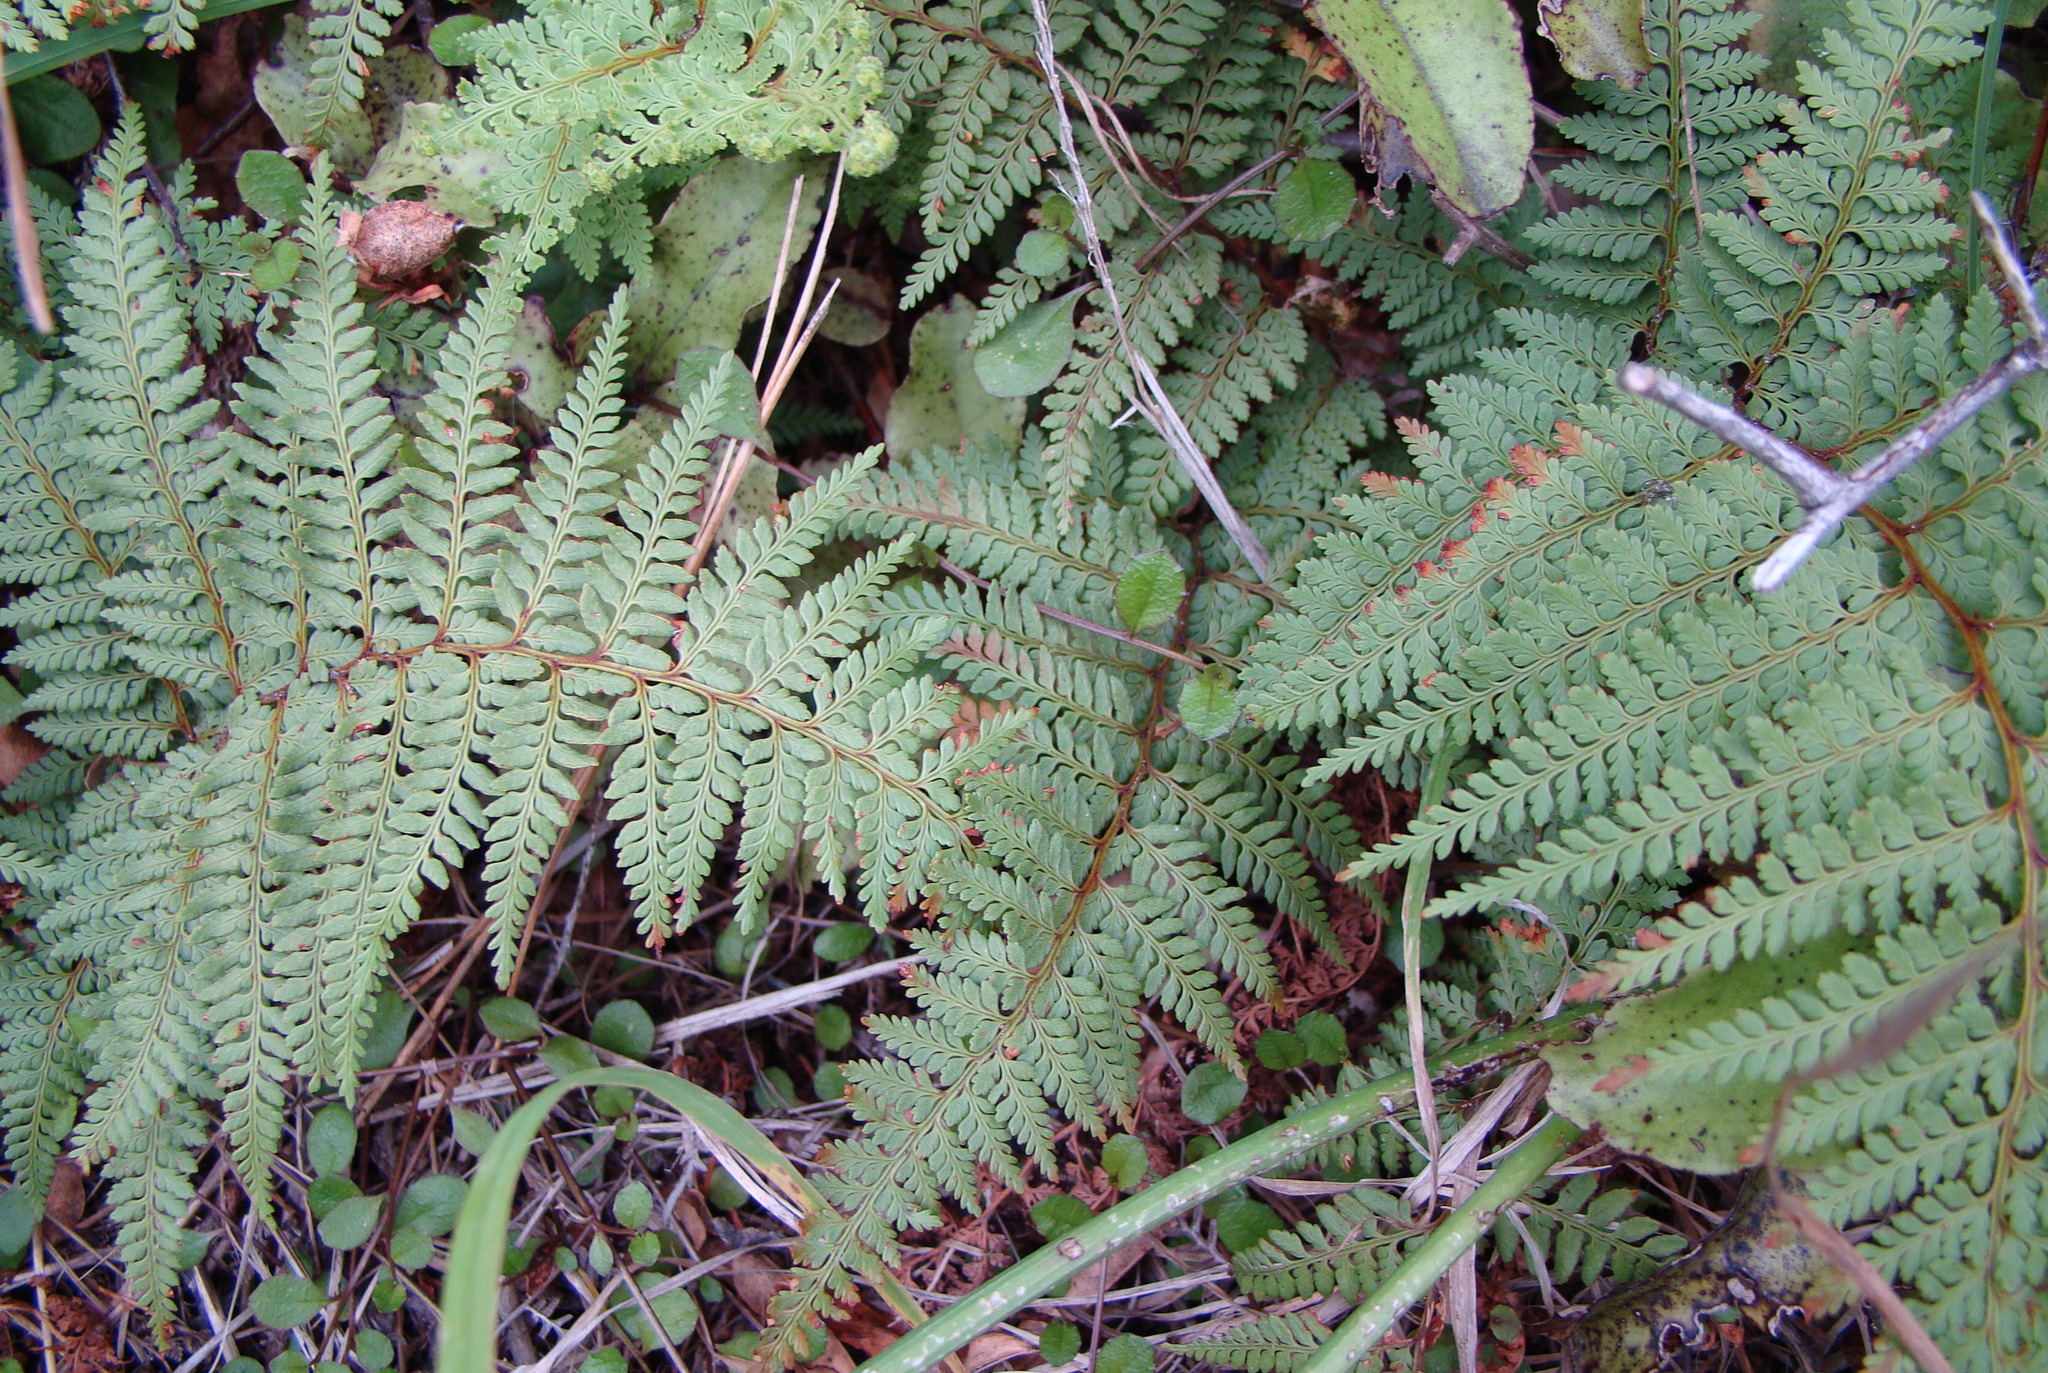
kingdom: Plantae
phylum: Tracheophyta
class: Polypodiopsida
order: Polypodiales
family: Dennstaedtiaceae
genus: Paesia
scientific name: Paesia scaberula
